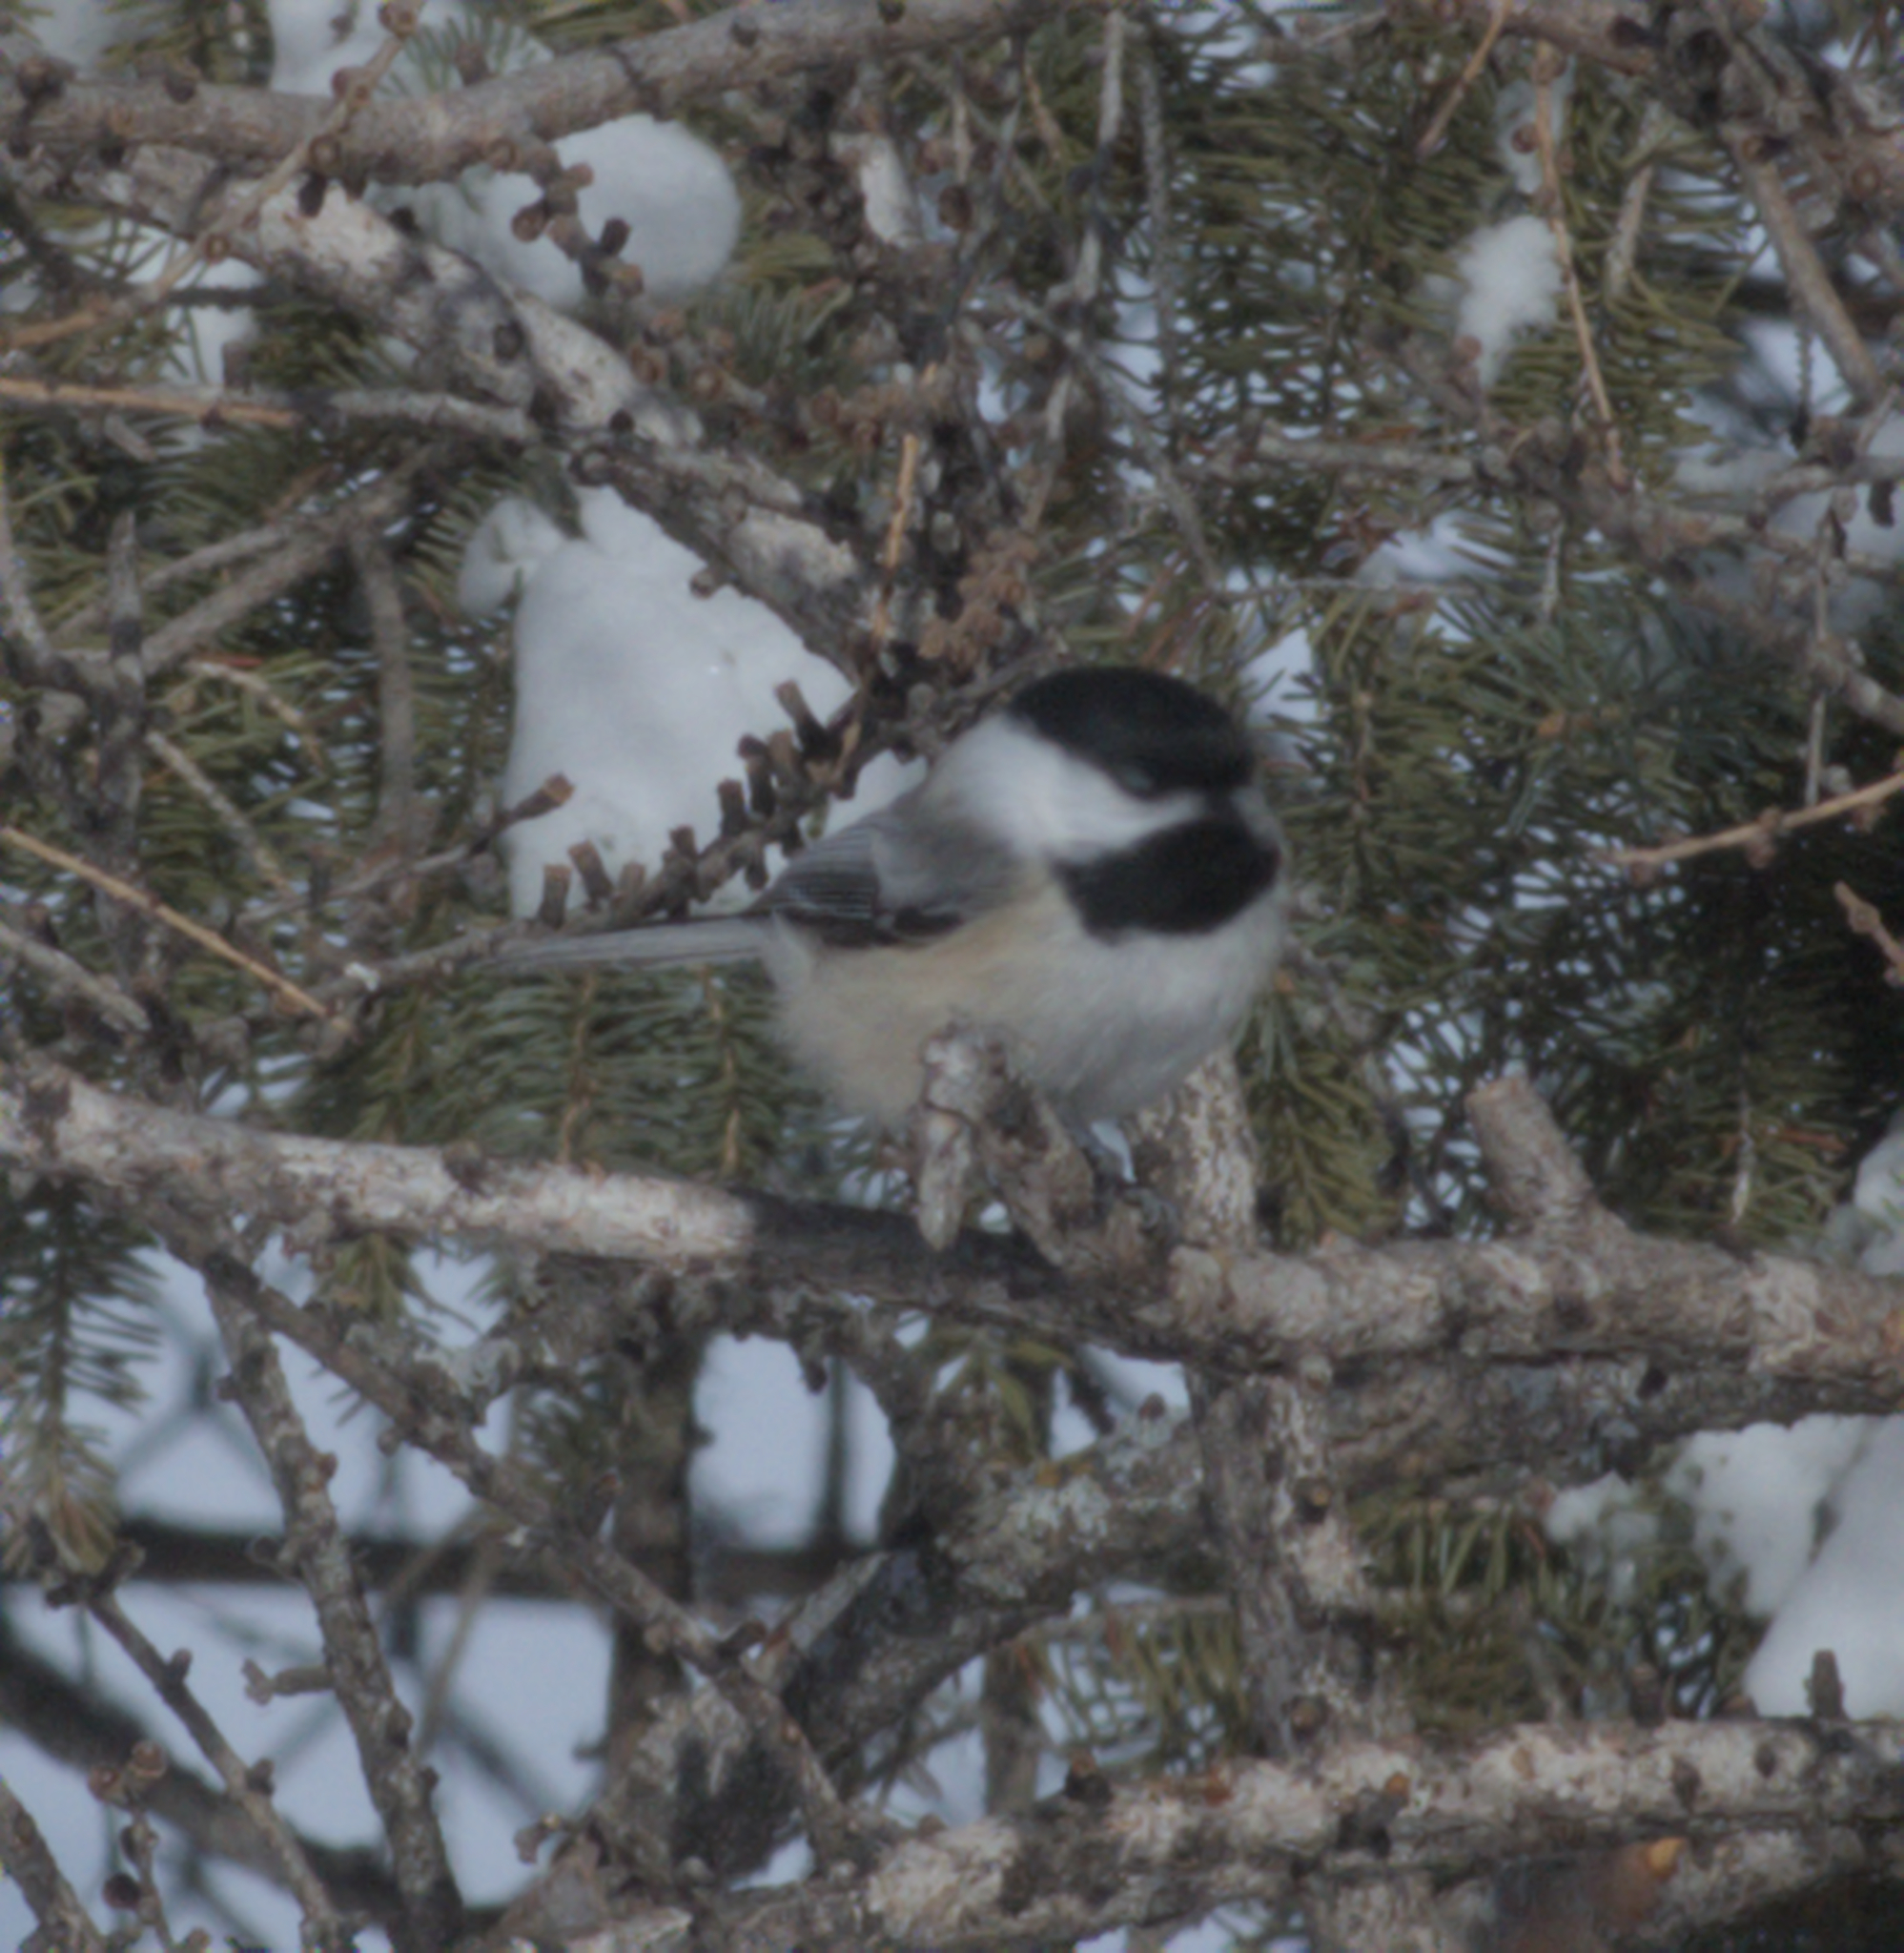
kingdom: Animalia
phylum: Chordata
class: Aves
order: Passeriformes
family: Paridae
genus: Poecile
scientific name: Poecile atricapillus
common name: Black-capped chickadee
